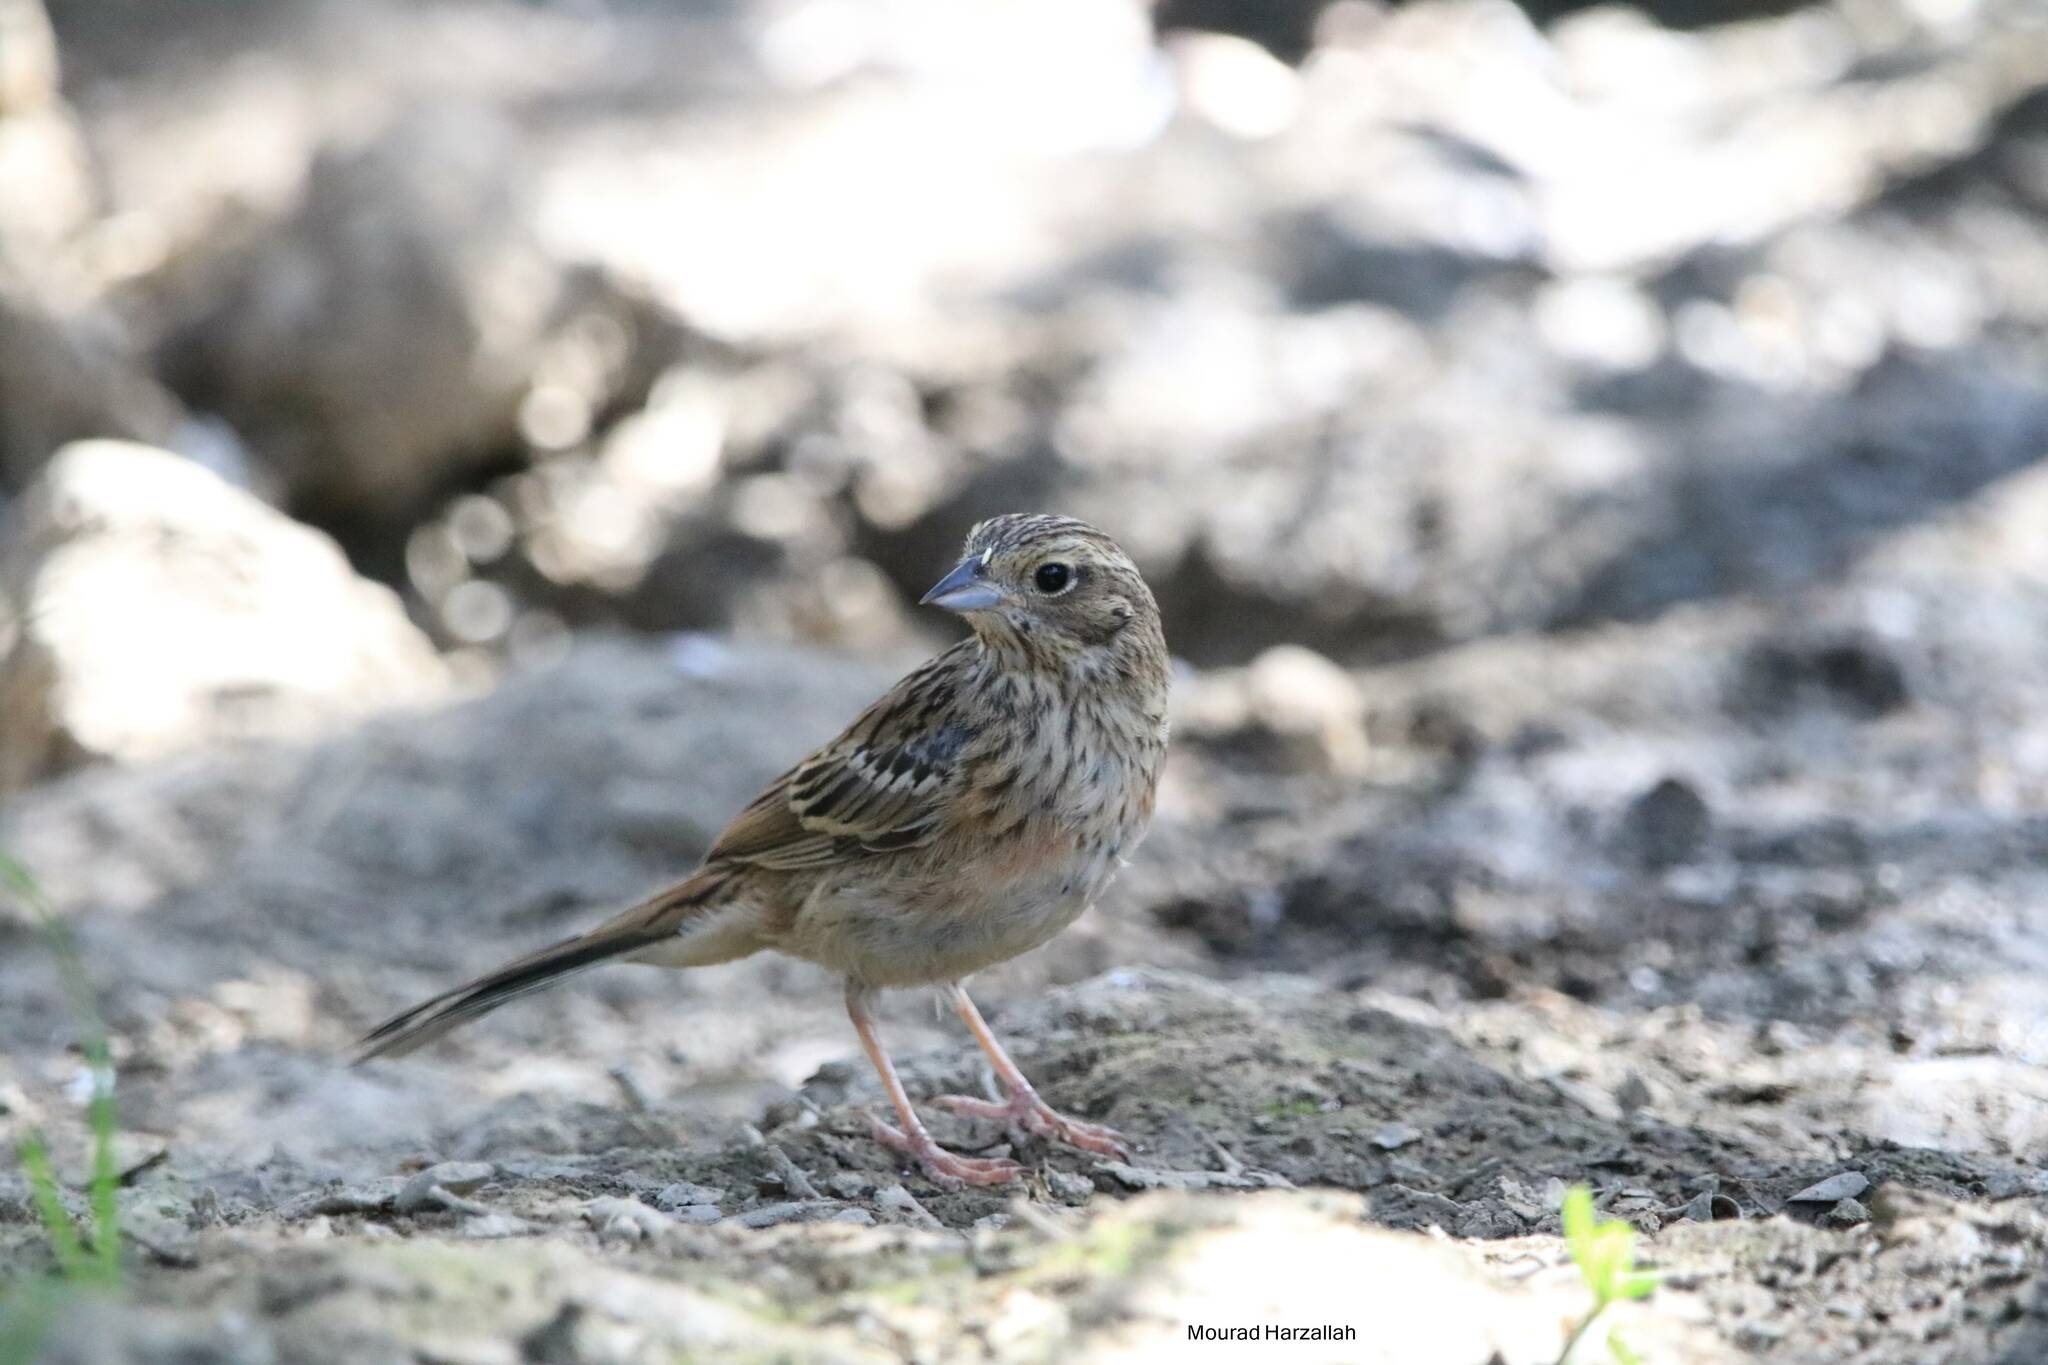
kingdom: Animalia
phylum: Chordata
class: Aves
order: Passeriformes
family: Emberizidae
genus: Emberiza
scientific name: Emberiza cia
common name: Rock bunting
